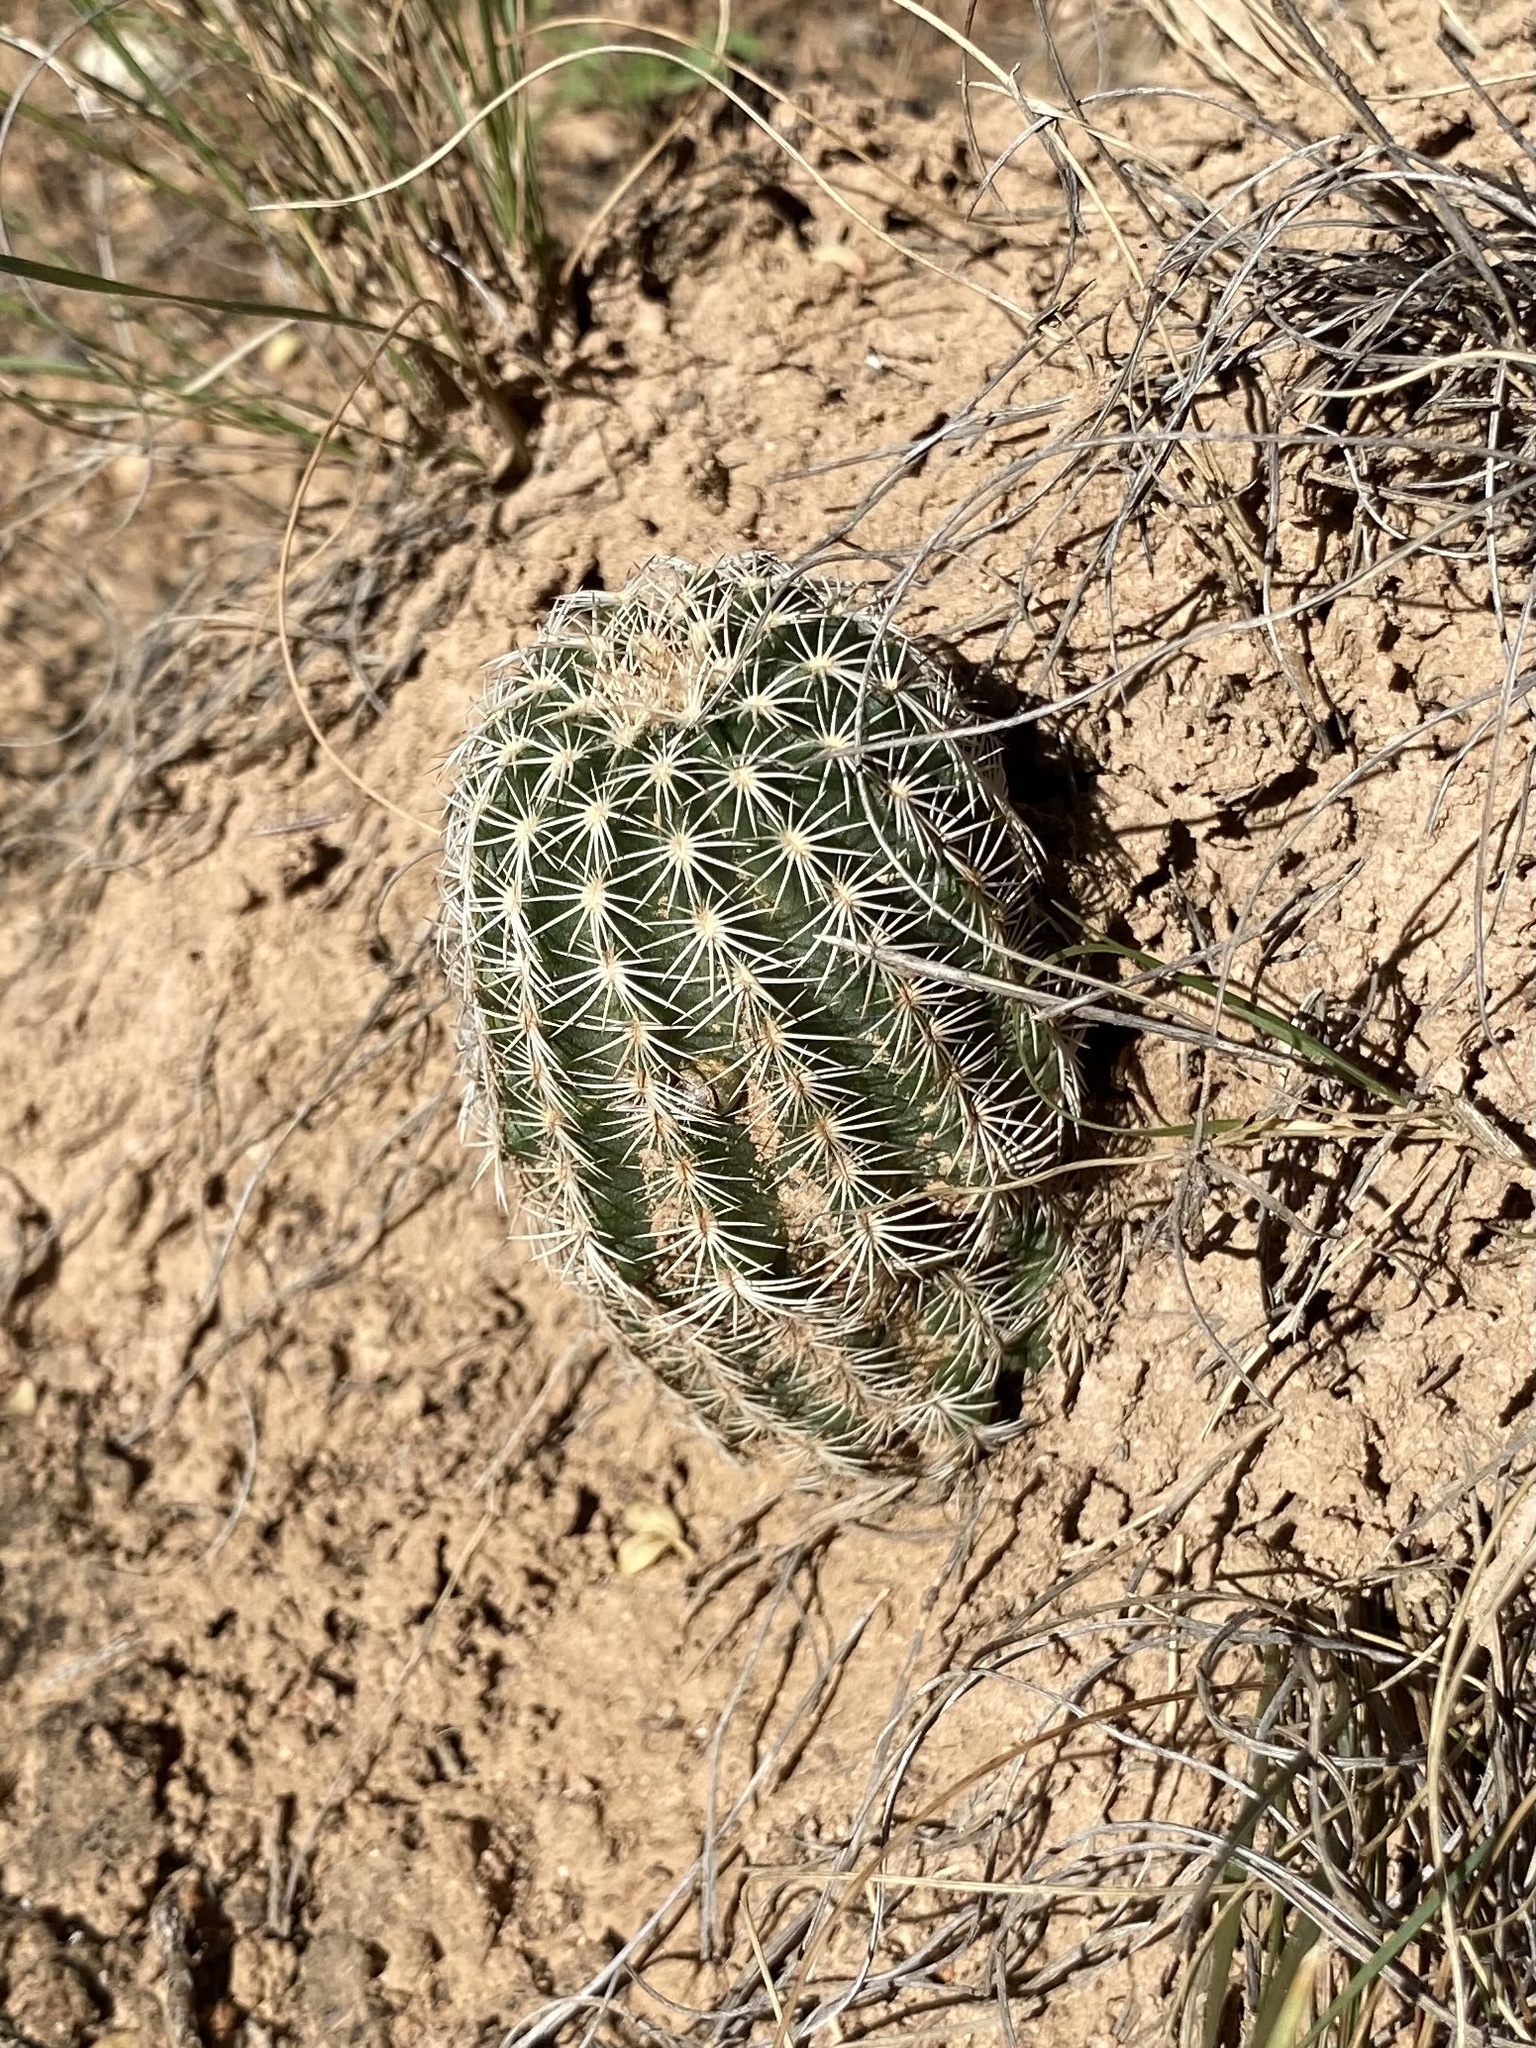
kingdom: Plantae
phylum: Tracheophyta
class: Magnoliopsida
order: Caryophyllales
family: Cactaceae
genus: Echinocereus
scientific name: Echinocereus reichenbachii
